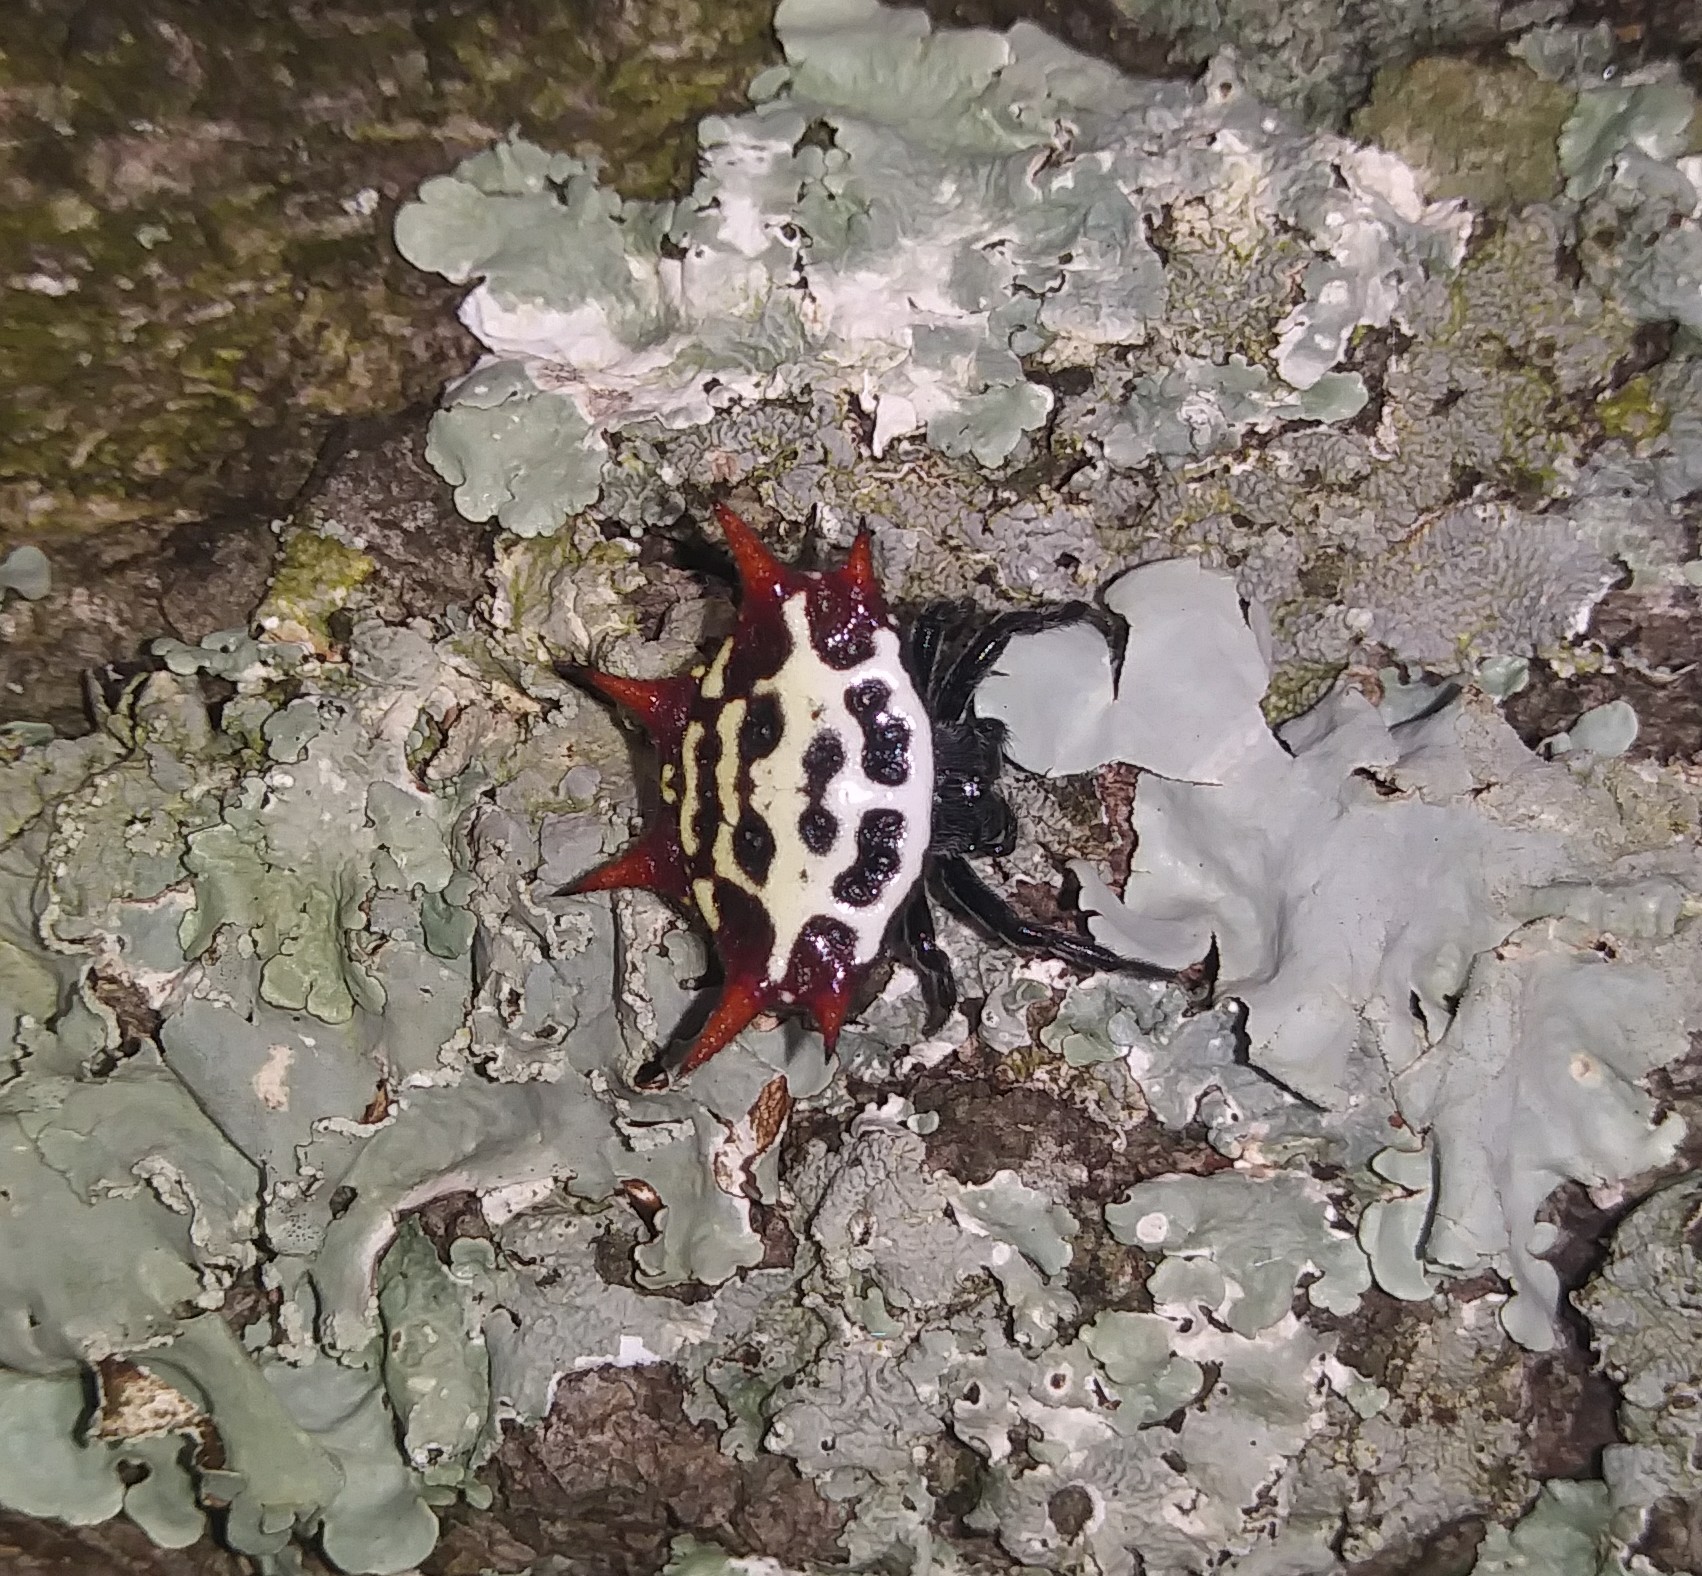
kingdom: Animalia
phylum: Arthropoda
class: Arachnida
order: Araneae
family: Araneidae
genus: Gasteracantha
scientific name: Gasteracantha cancriformis
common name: Orb weavers
